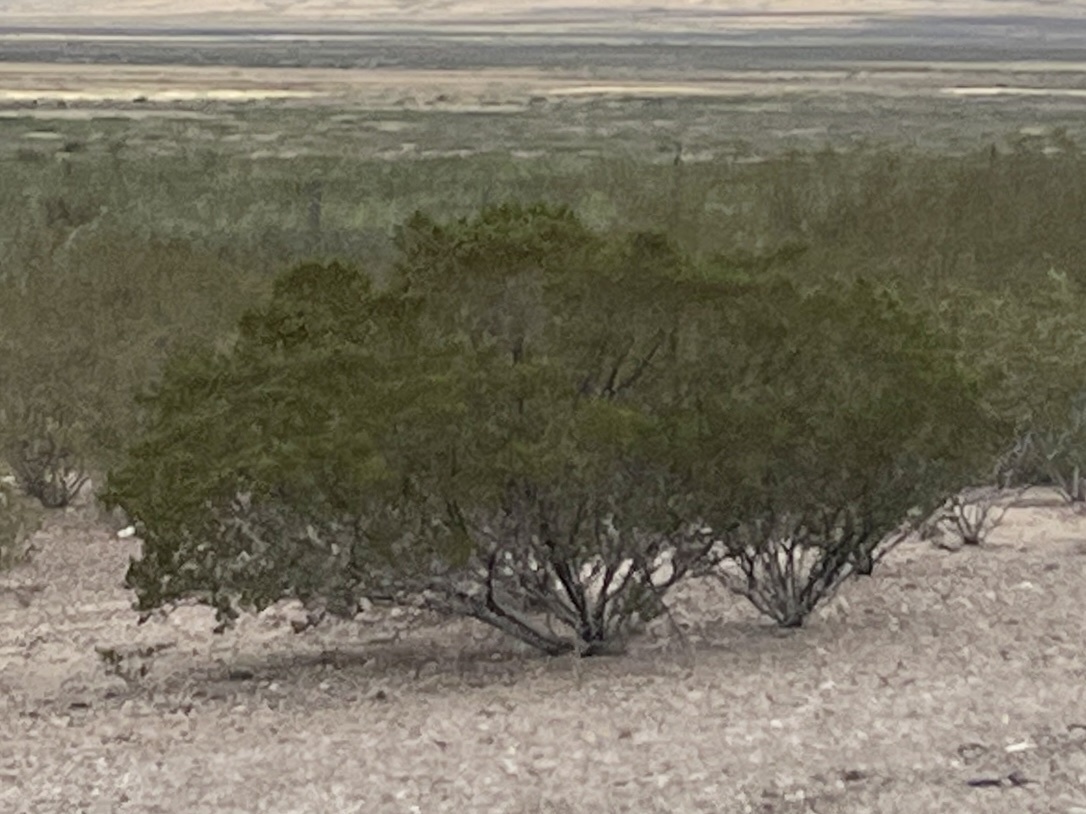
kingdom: Plantae
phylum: Tracheophyta
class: Magnoliopsida
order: Zygophyllales
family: Zygophyllaceae
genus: Larrea
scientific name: Larrea tridentata
